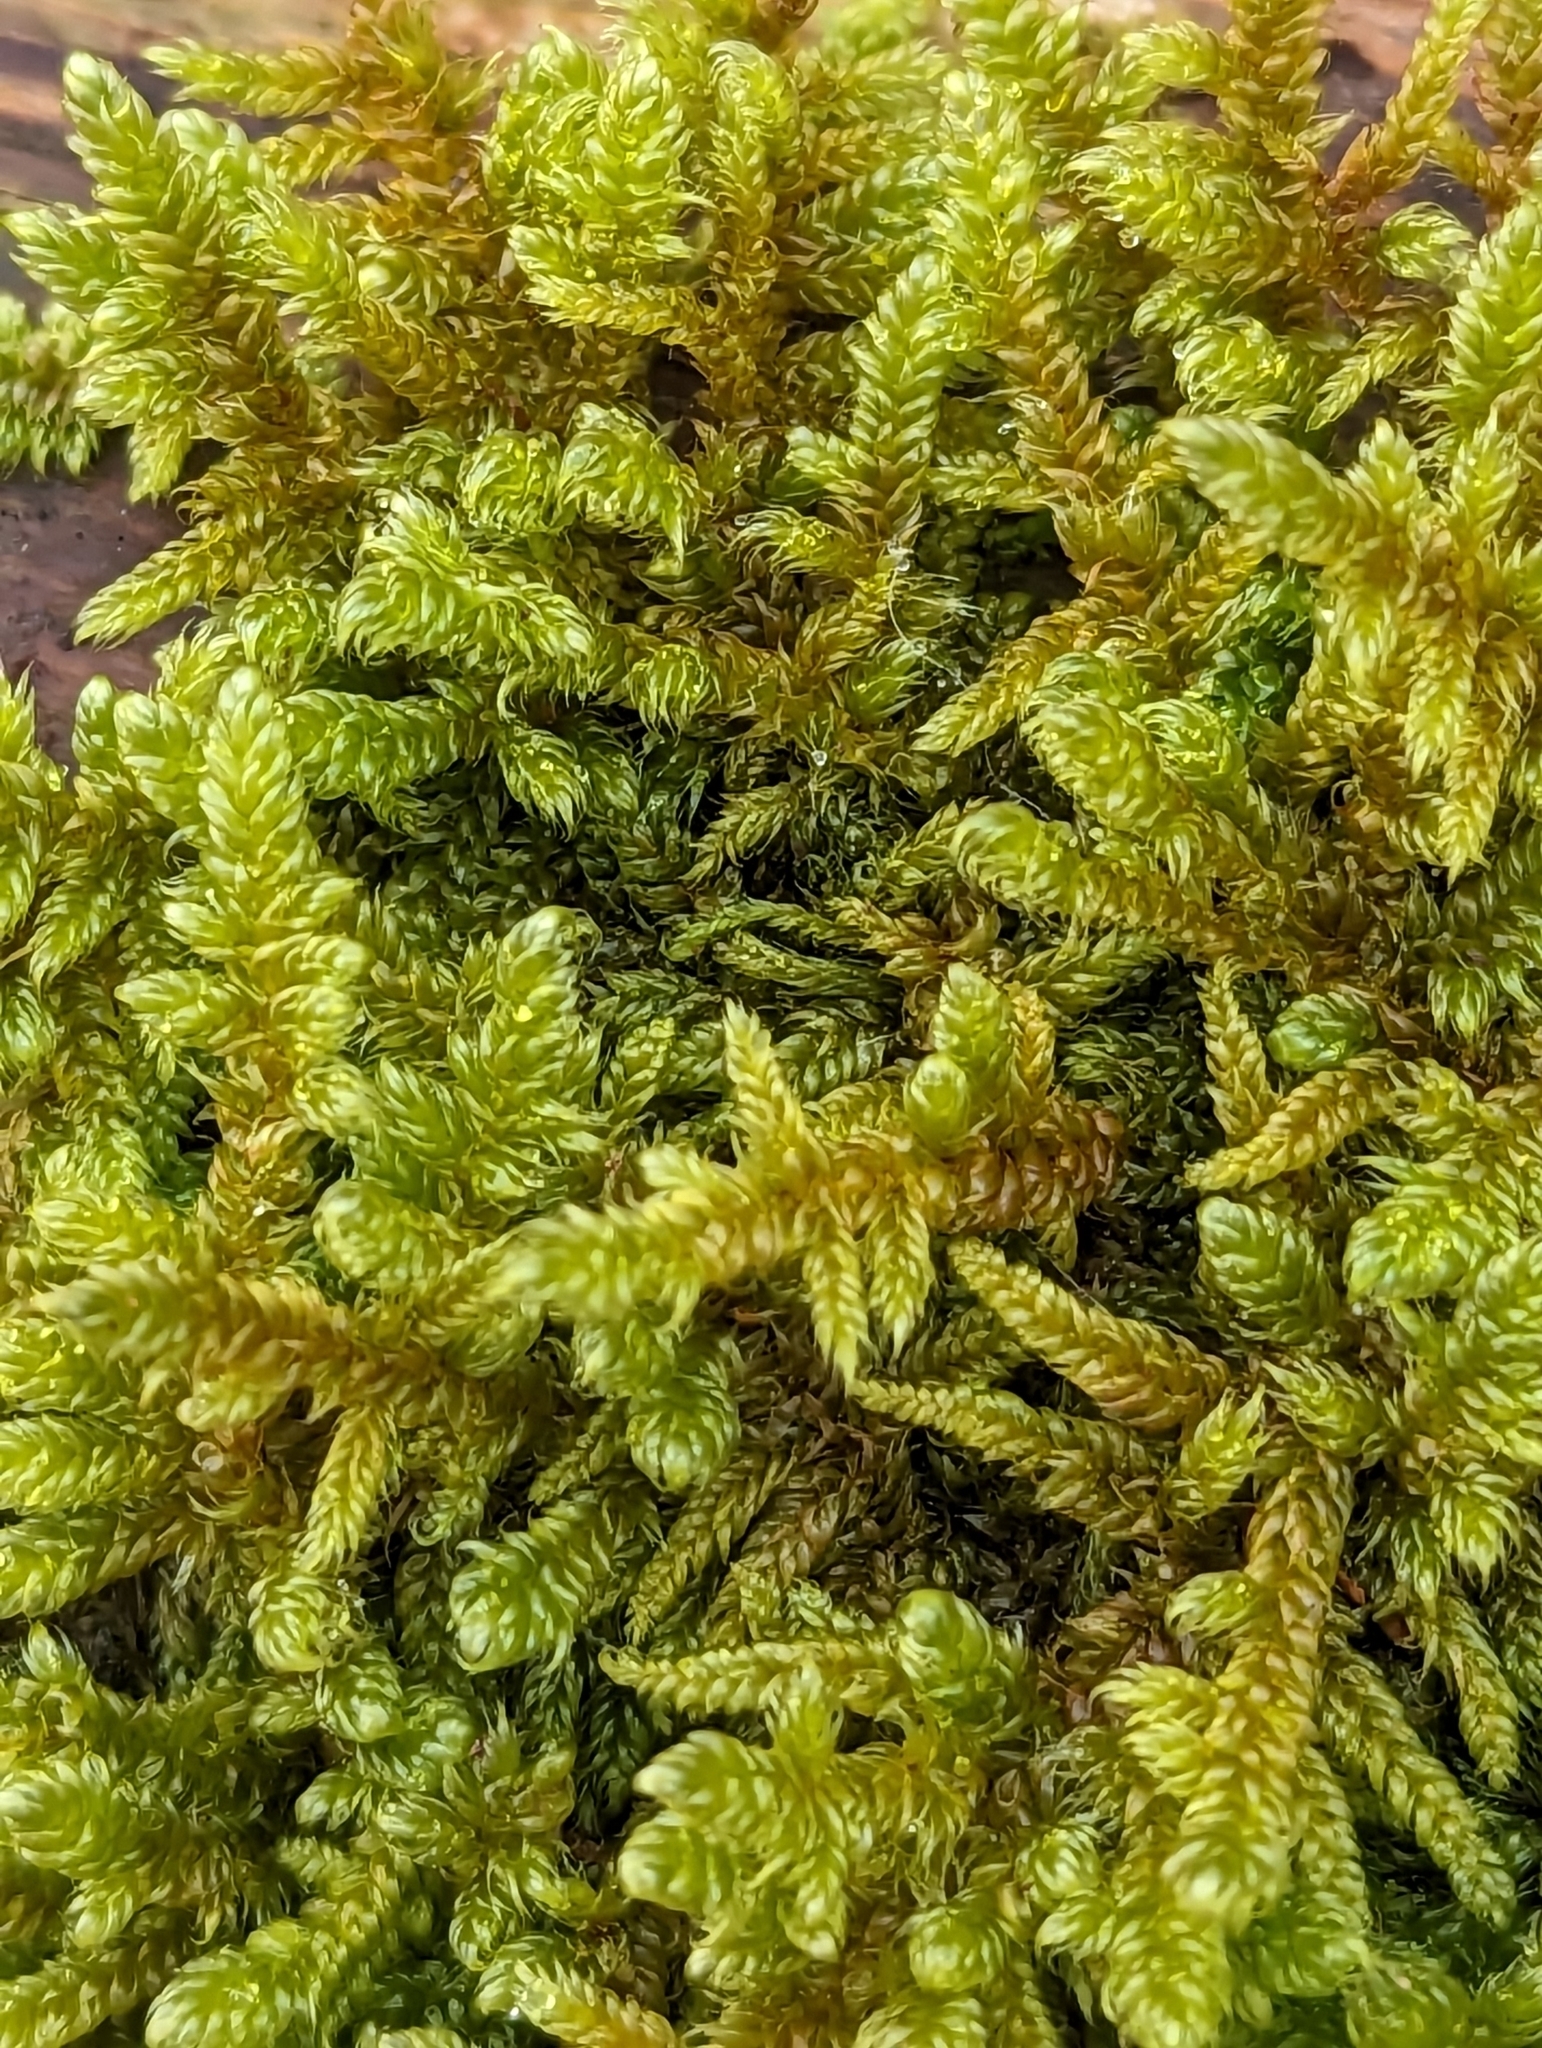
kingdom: Plantae
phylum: Bryophyta
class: Bryopsida
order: Hypnales
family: Hypnaceae
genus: Hypnum
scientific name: Hypnum cupressiforme
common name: Cypress-leaved plait-moss
